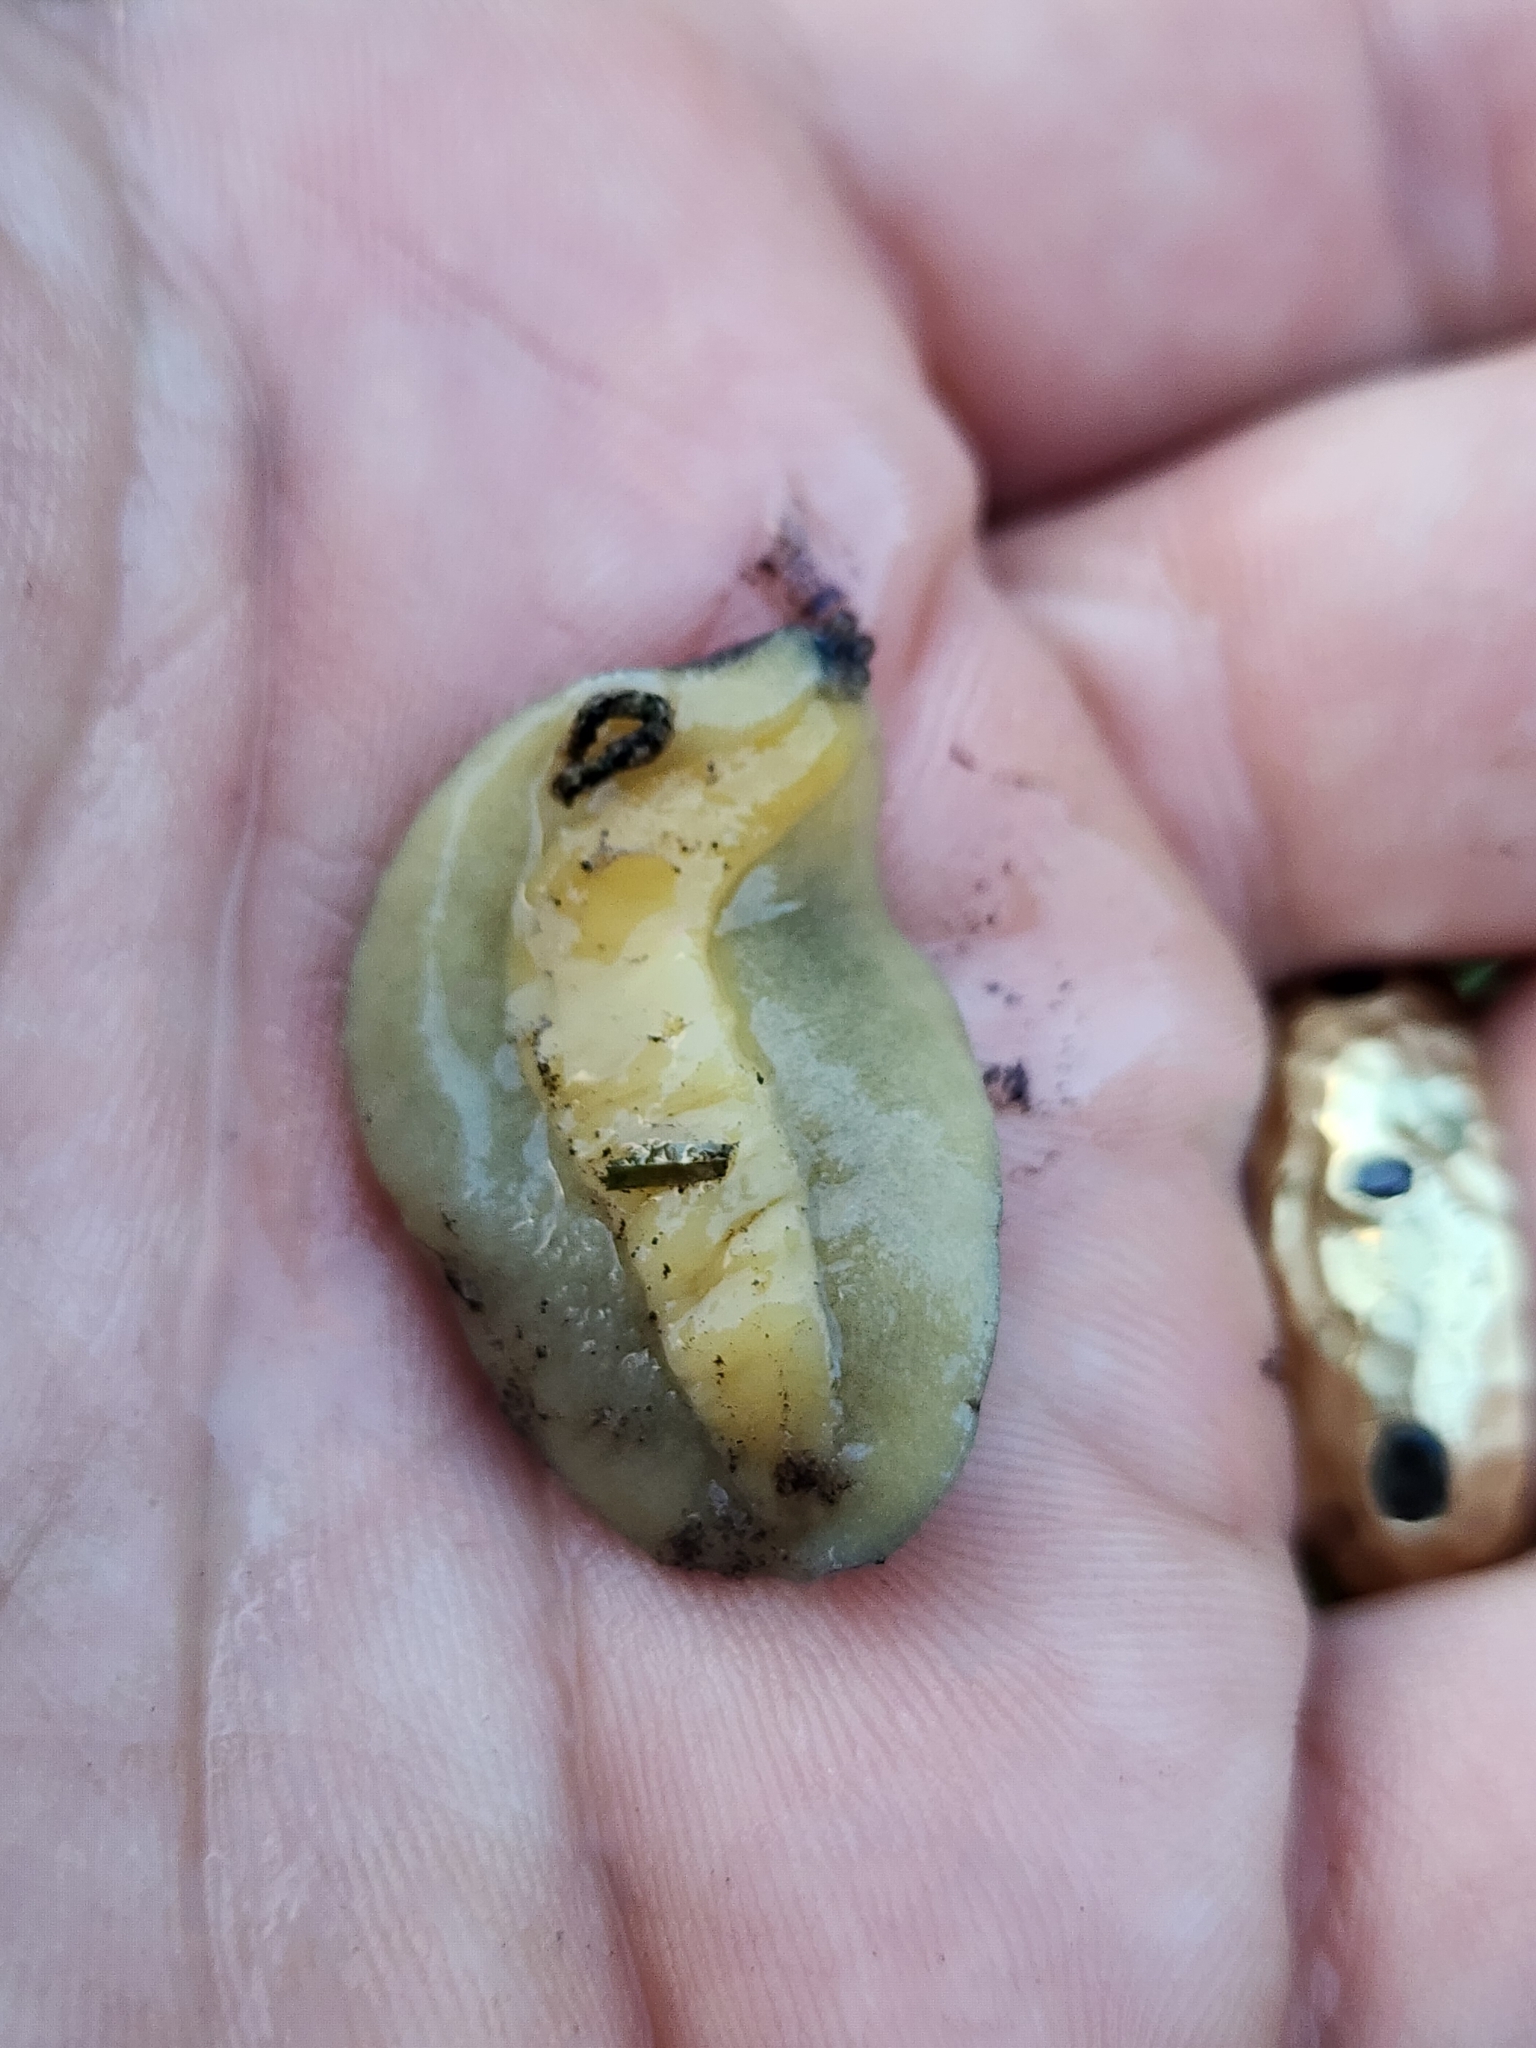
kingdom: Animalia
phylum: Mollusca
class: Gastropoda
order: Systellommatophora
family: Veronicellidae
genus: Leidyula
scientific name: Leidyula floridana
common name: Florida leatherleaf
